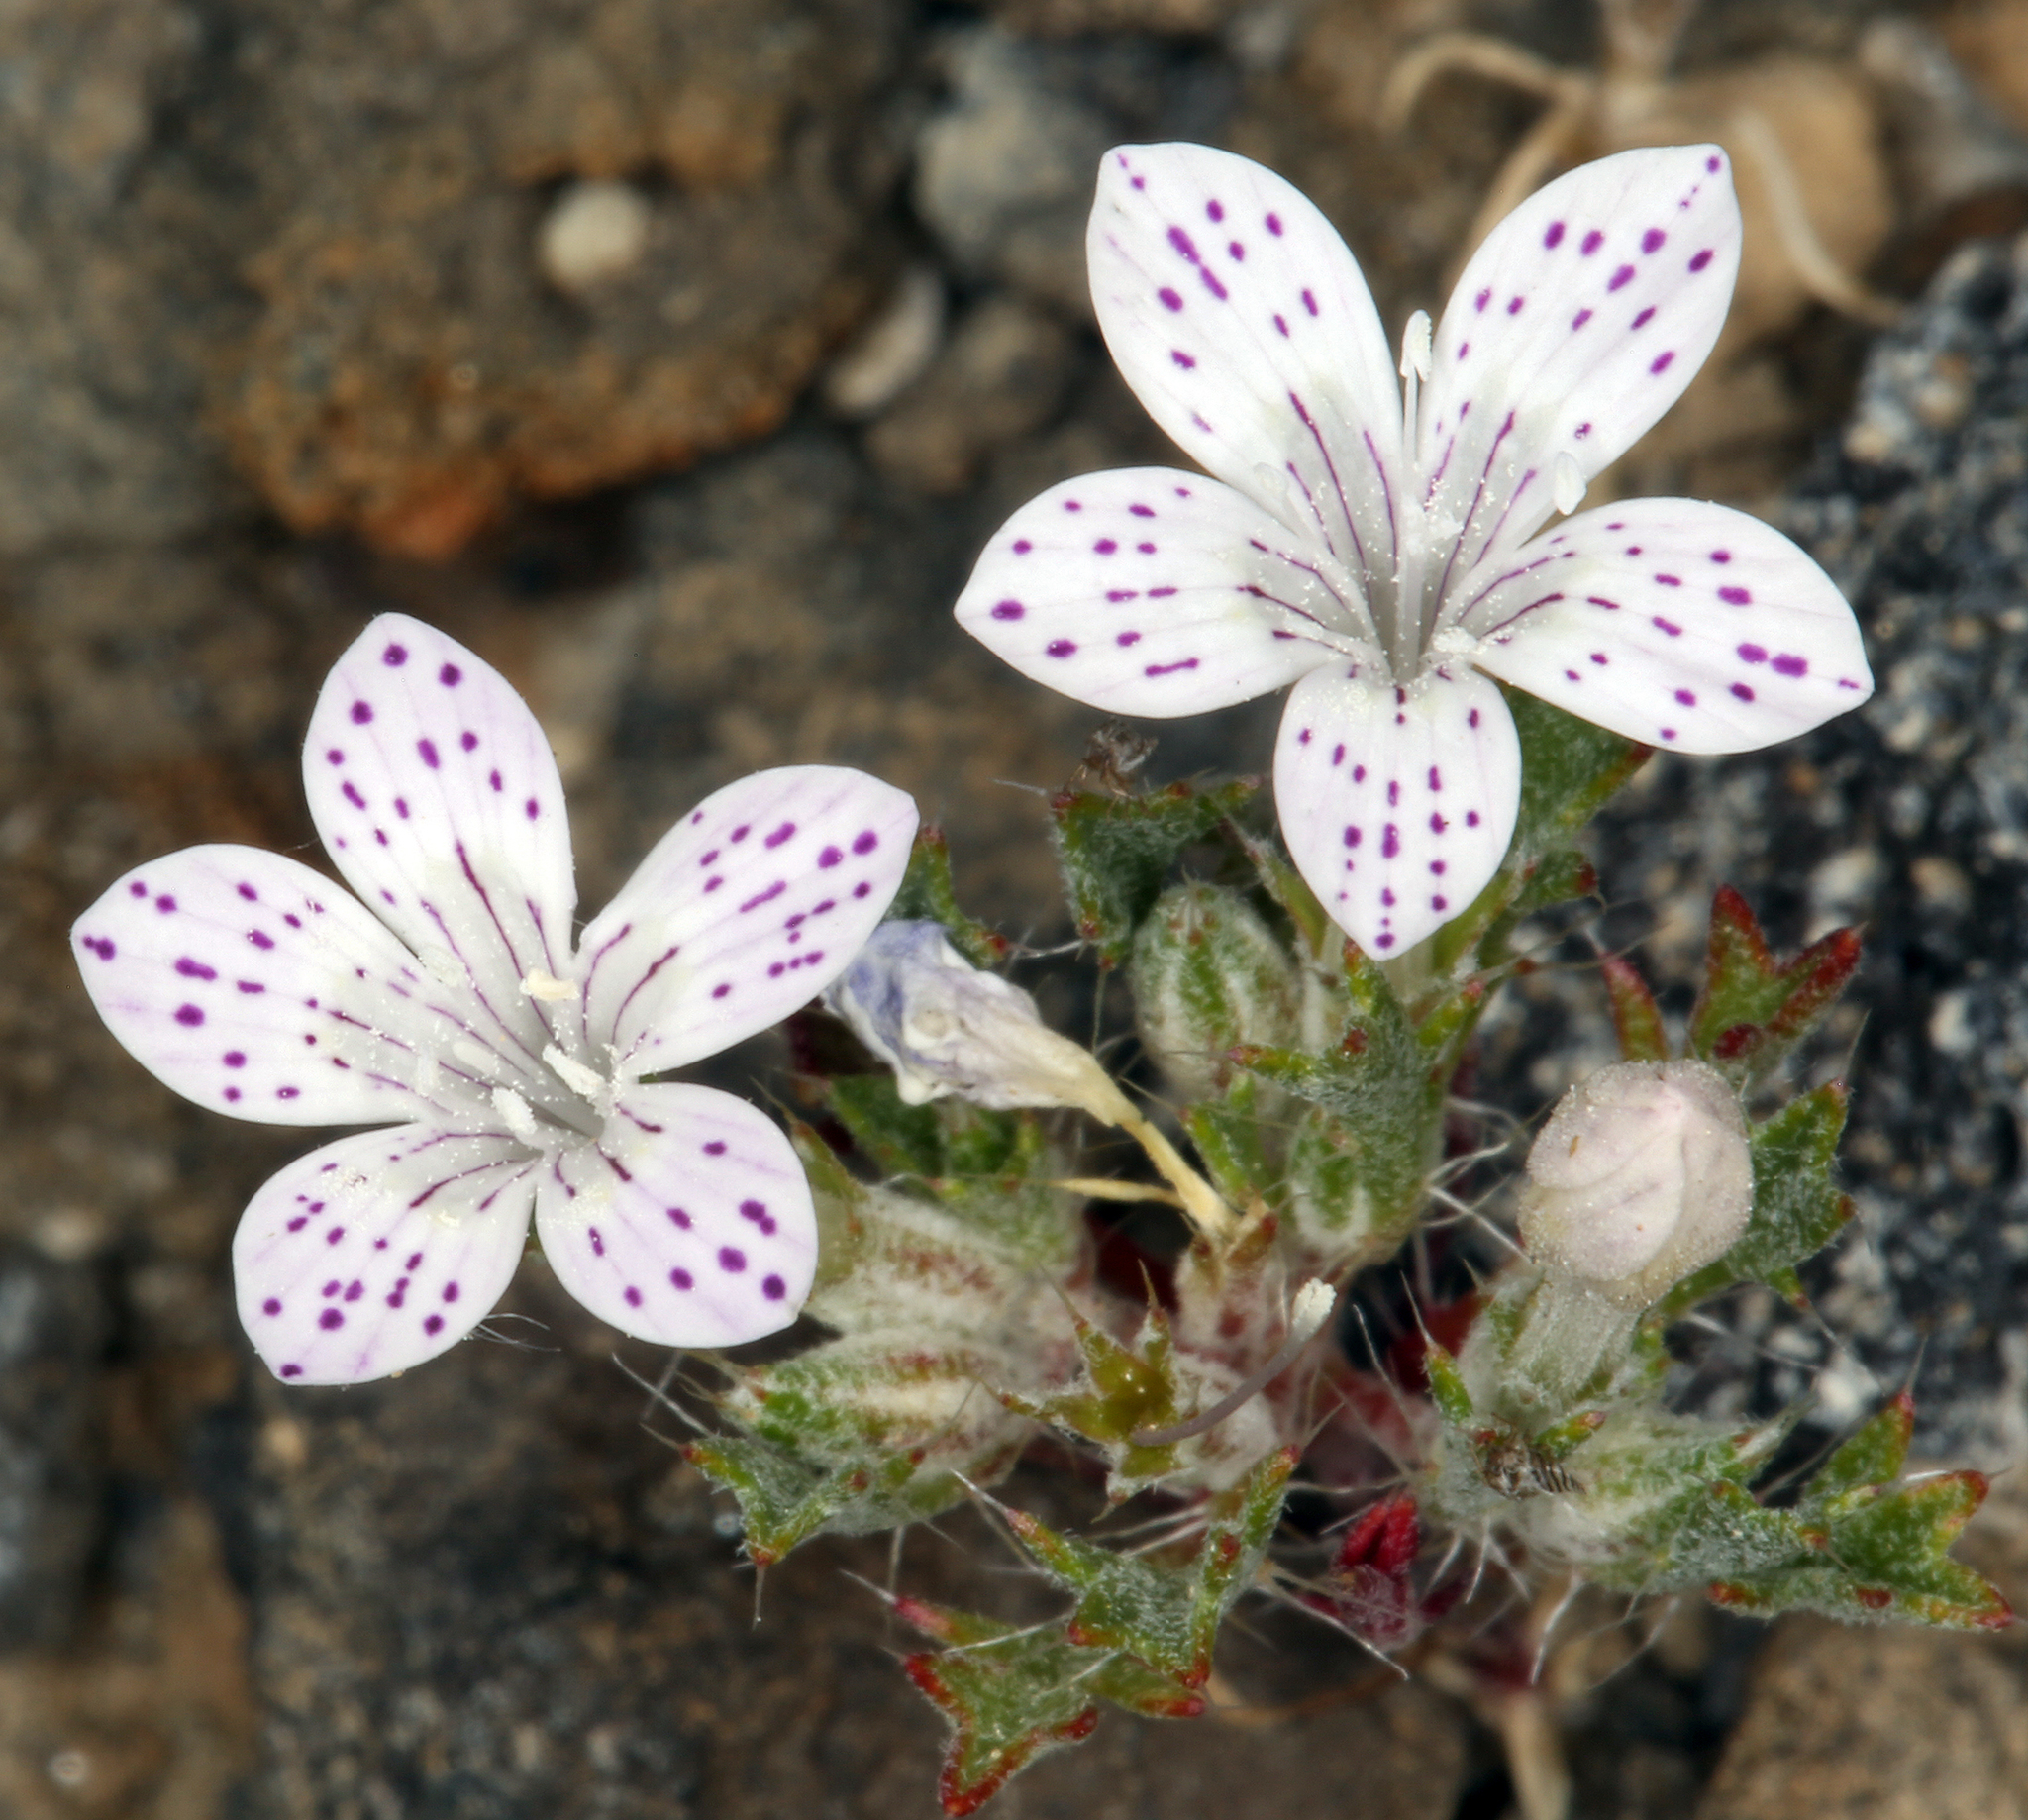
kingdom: Plantae
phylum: Tracheophyta
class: Magnoliopsida
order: Ericales
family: Polemoniaceae
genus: Langloisia
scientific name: Langloisia setosissima
